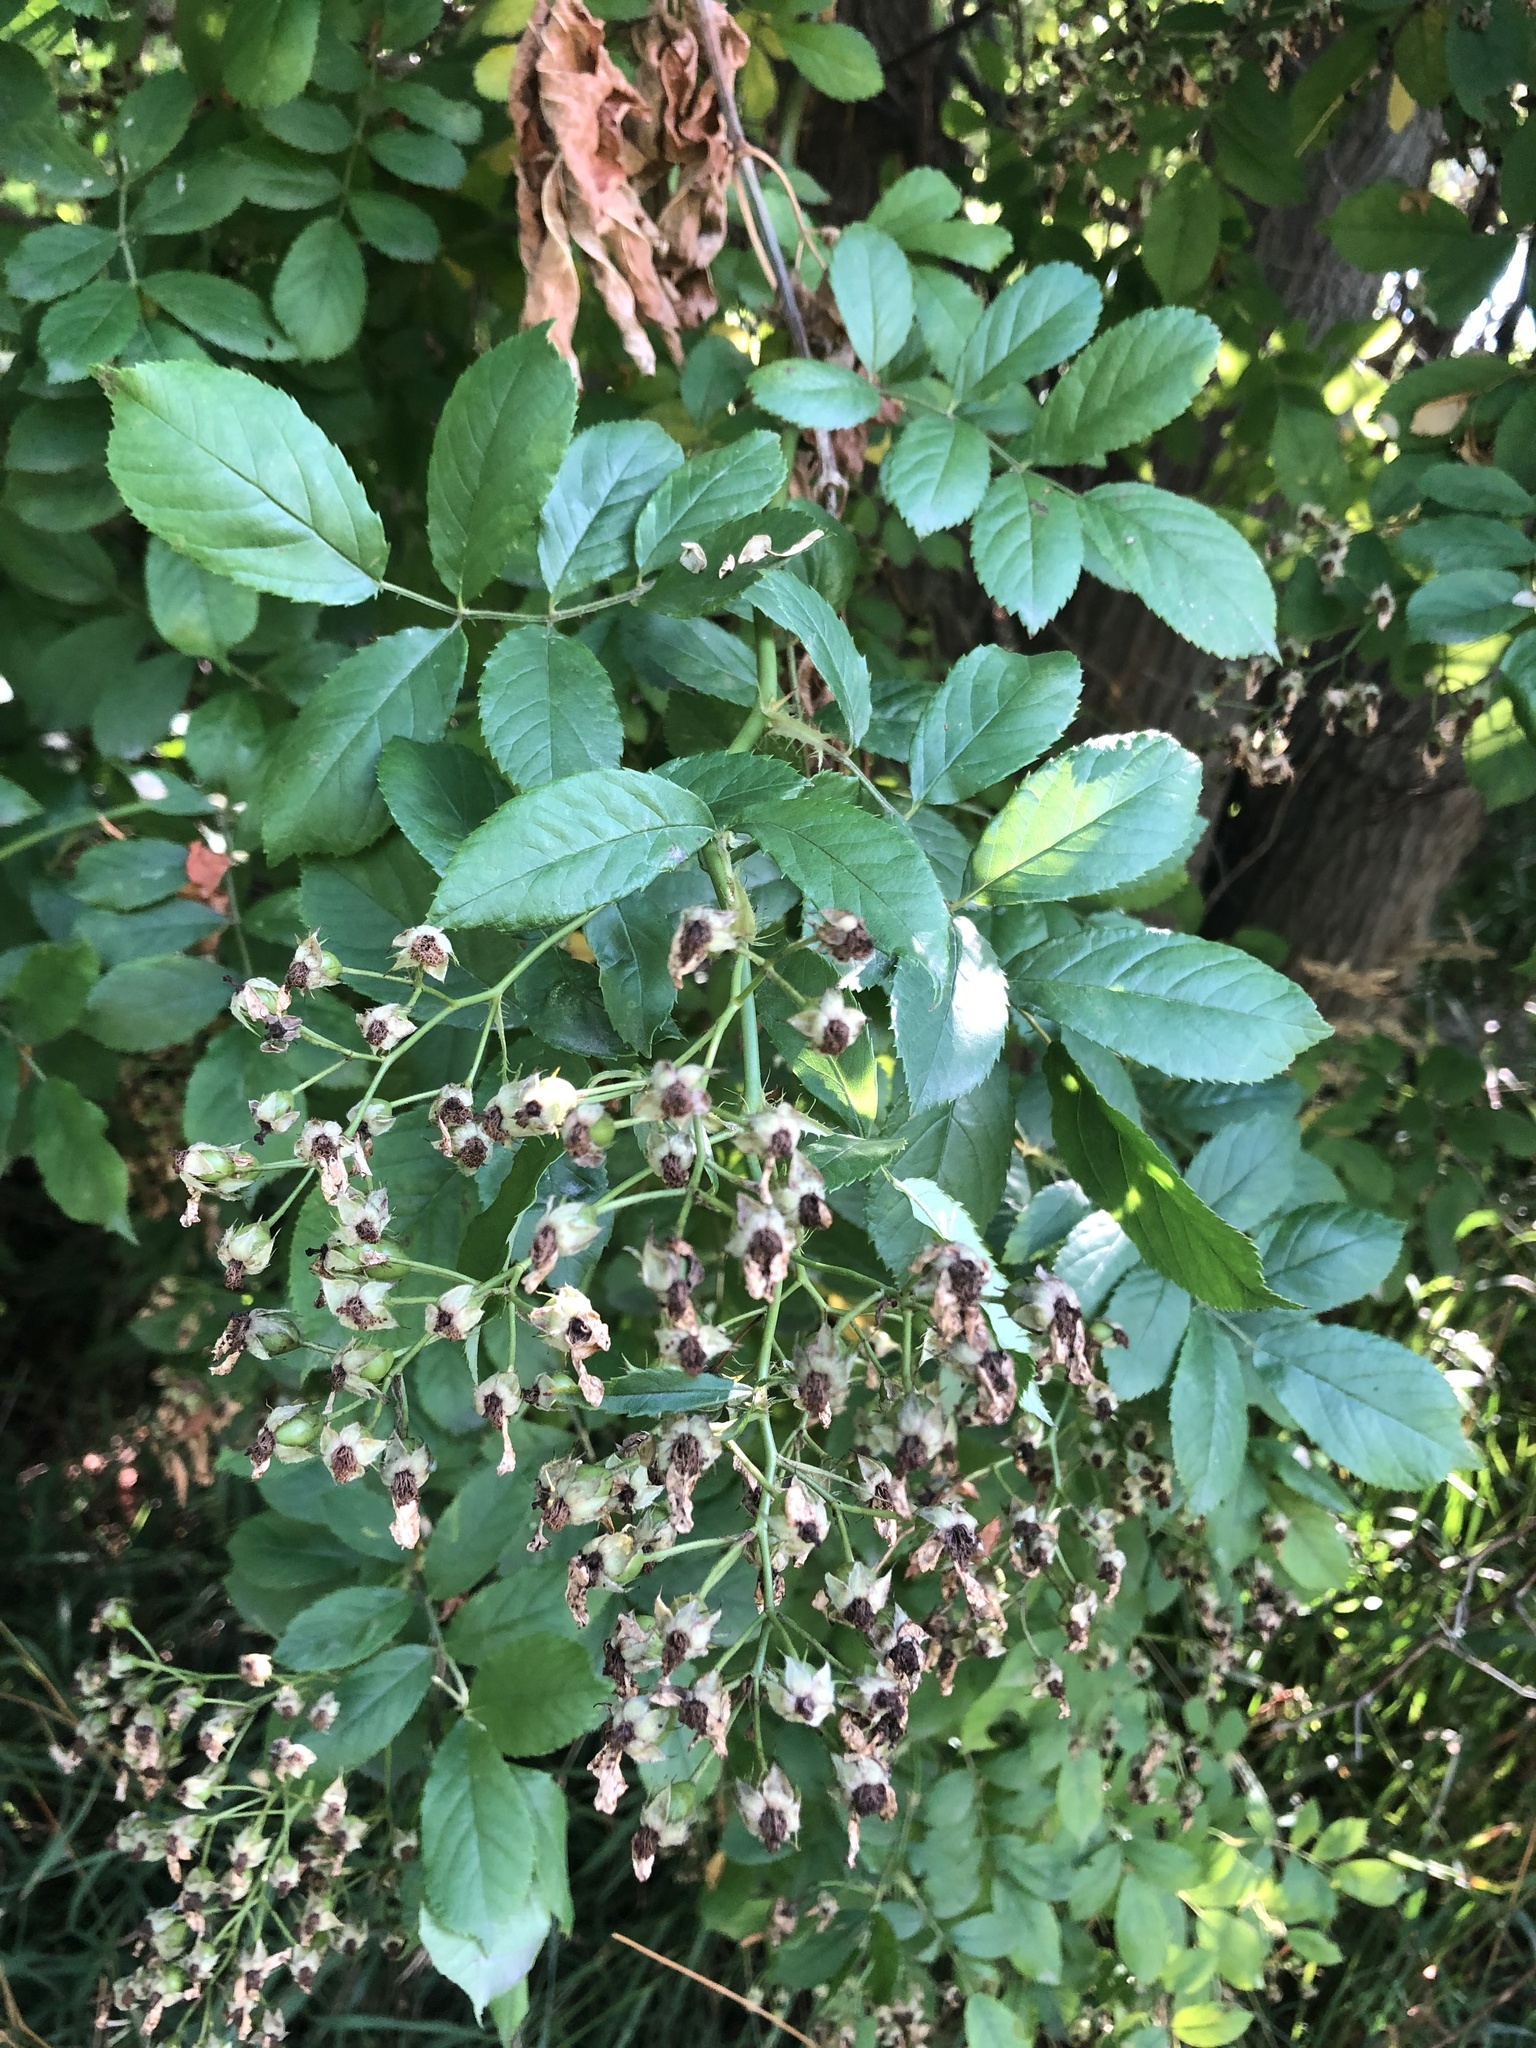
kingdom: Plantae
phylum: Tracheophyta
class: Magnoliopsida
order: Rosales
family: Rosaceae
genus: Rosa
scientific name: Rosa multiflora
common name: Multiflora rose
